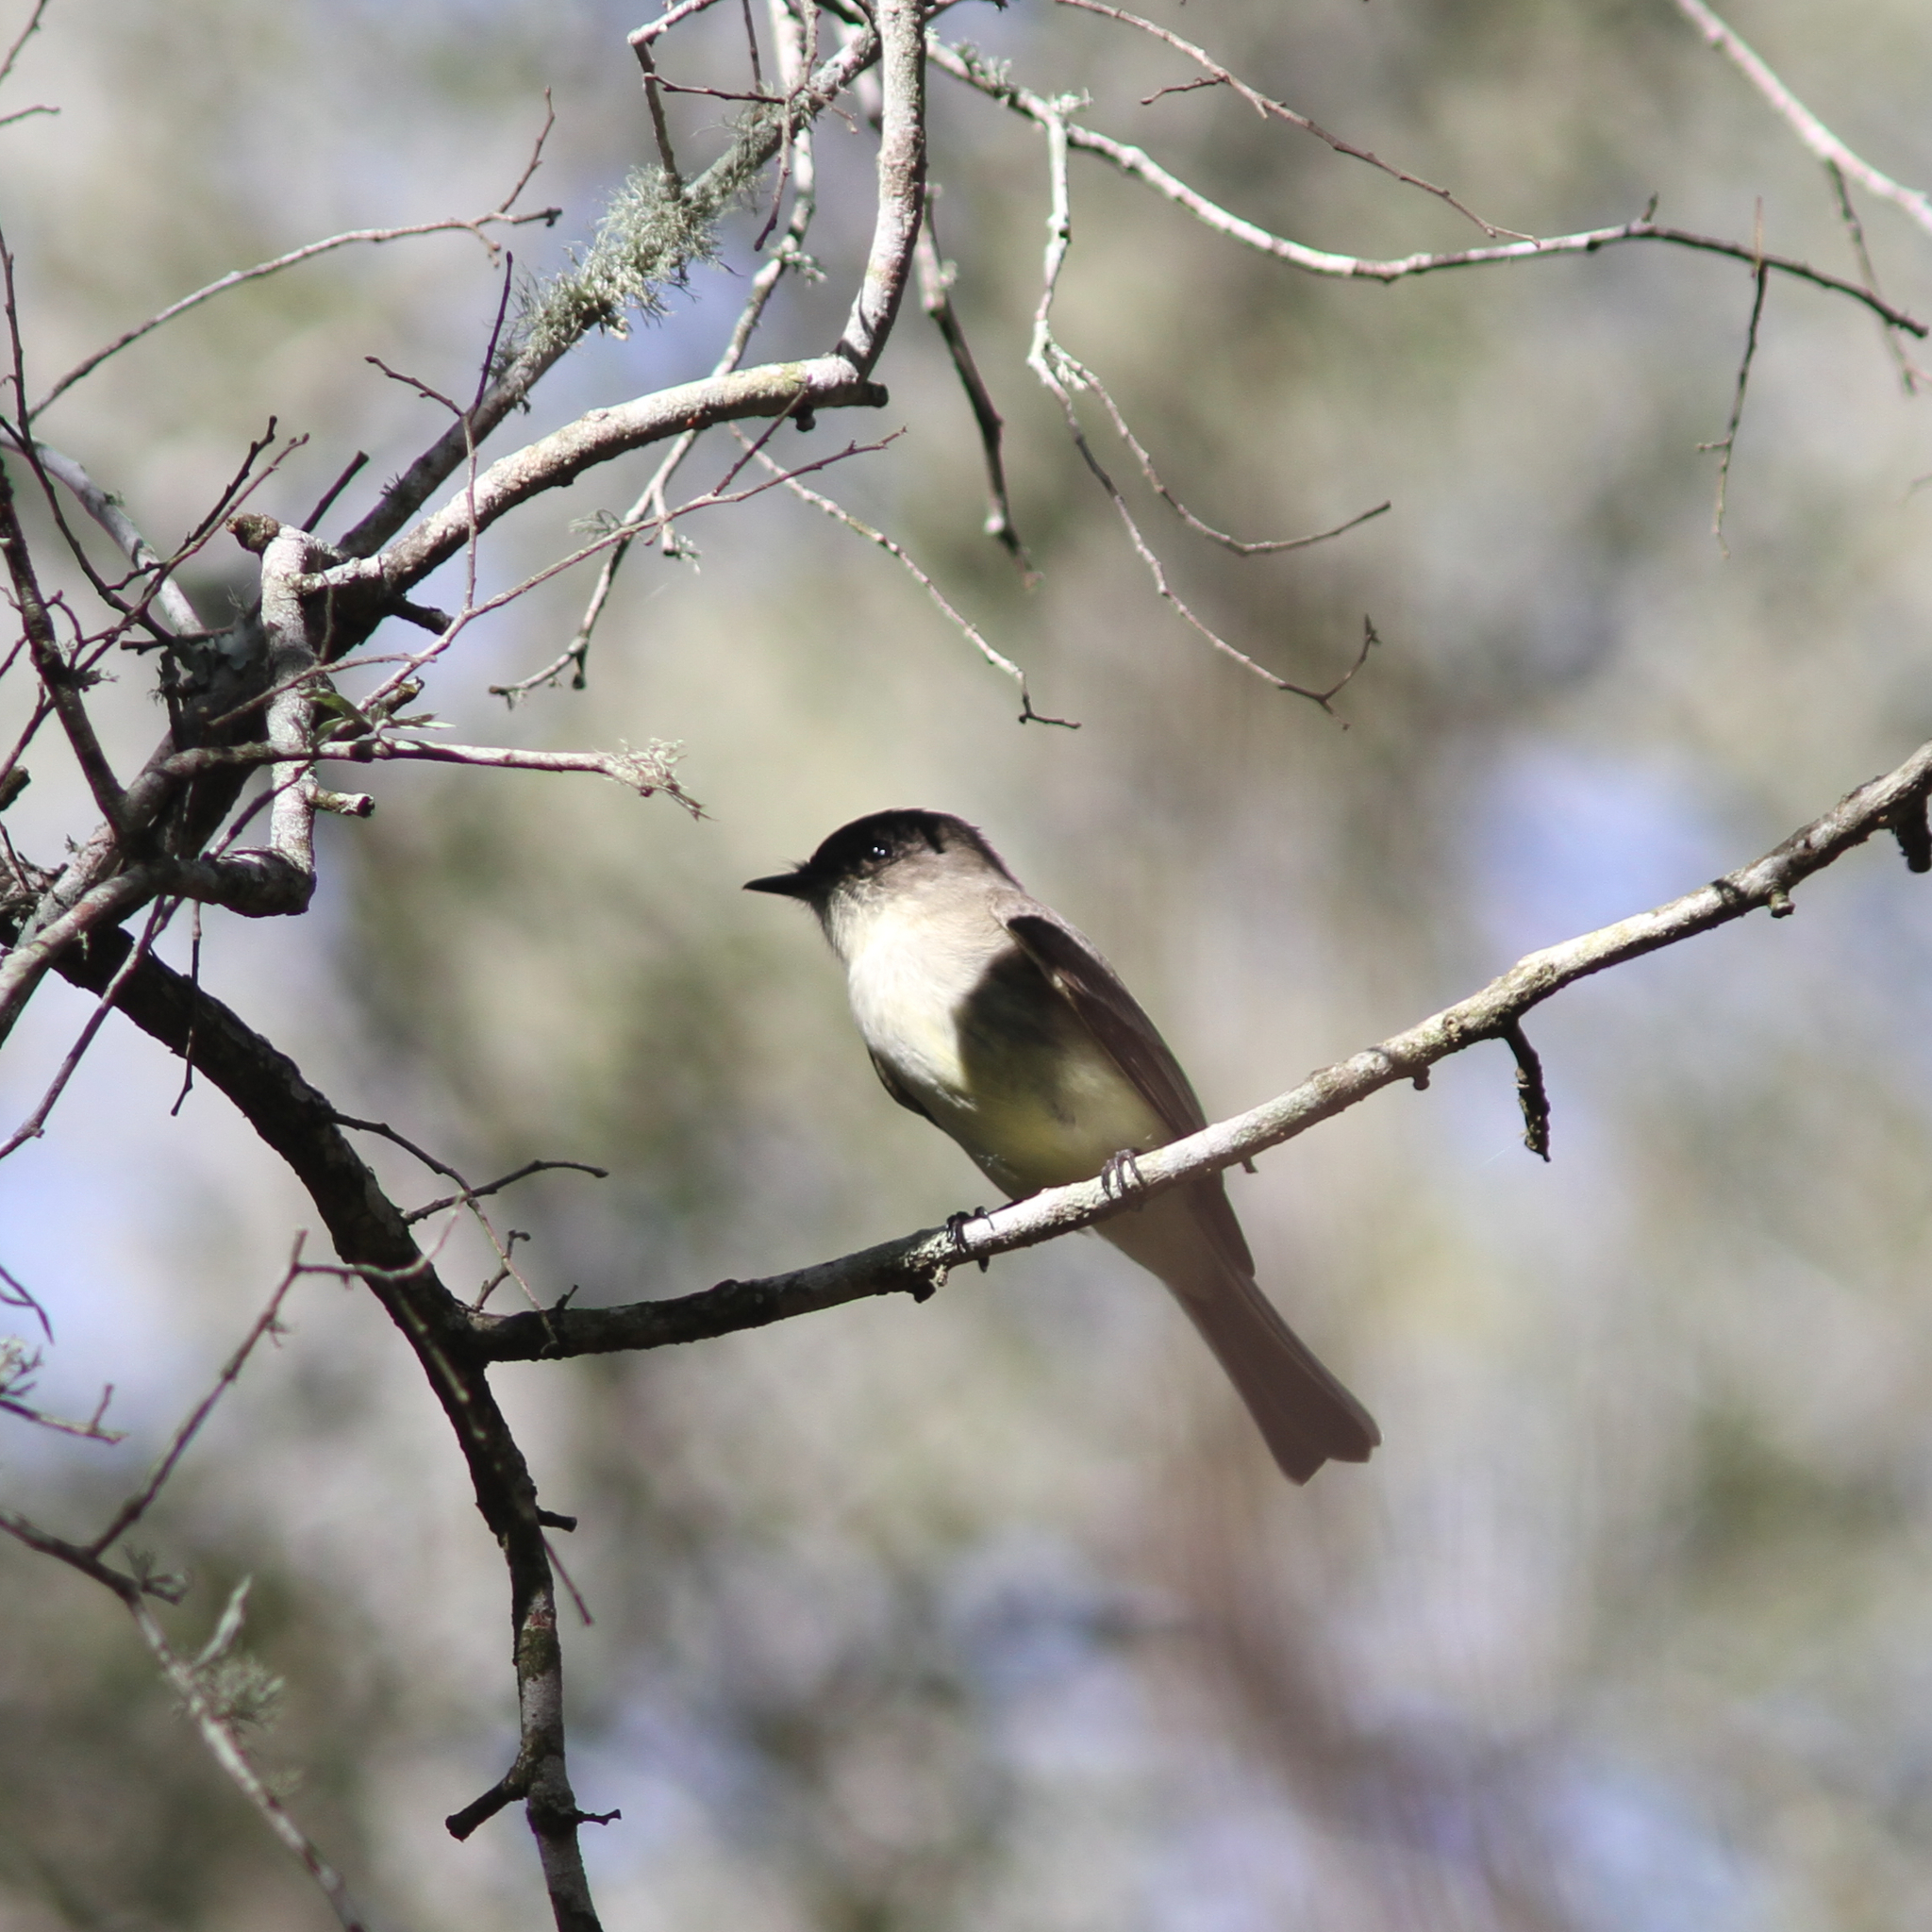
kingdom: Animalia
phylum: Chordata
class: Aves
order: Passeriformes
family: Tyrannidae
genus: Sayornis
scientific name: Sayornis phoebe
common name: Eastern phoebe
